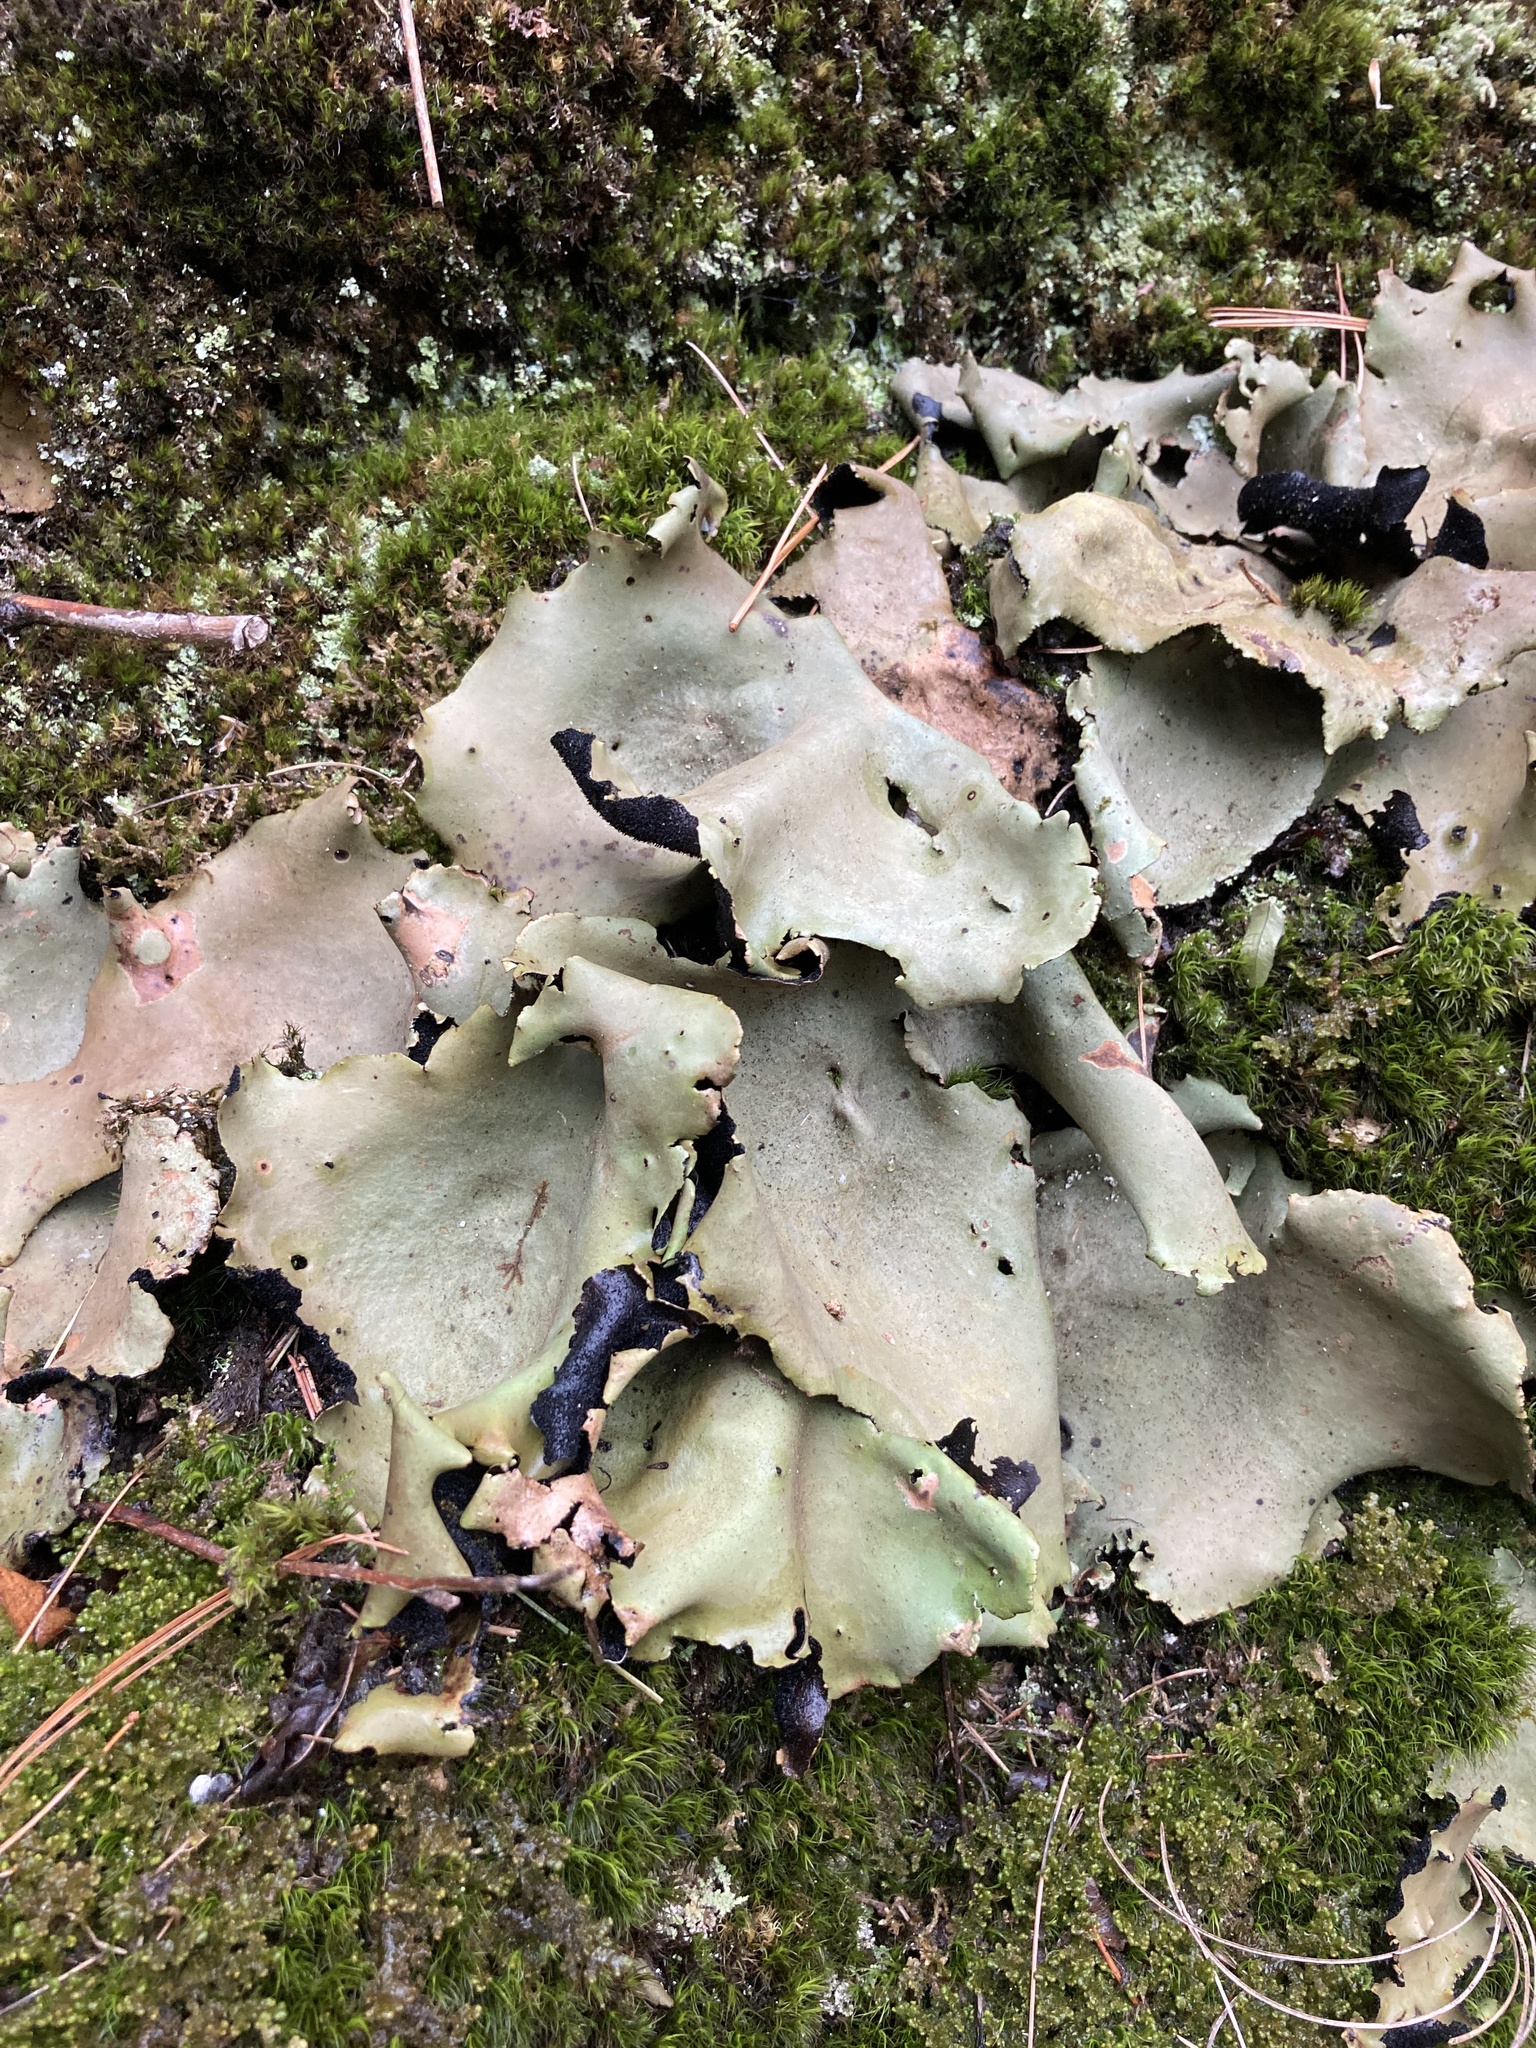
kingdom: Fungi
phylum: Ascomycota
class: Lecanoromycetes
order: Umbilicariales
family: Umbilicariaceae
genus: Umbilicaria
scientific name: Umbilicaria mammulata
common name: Smooth rock tripe
